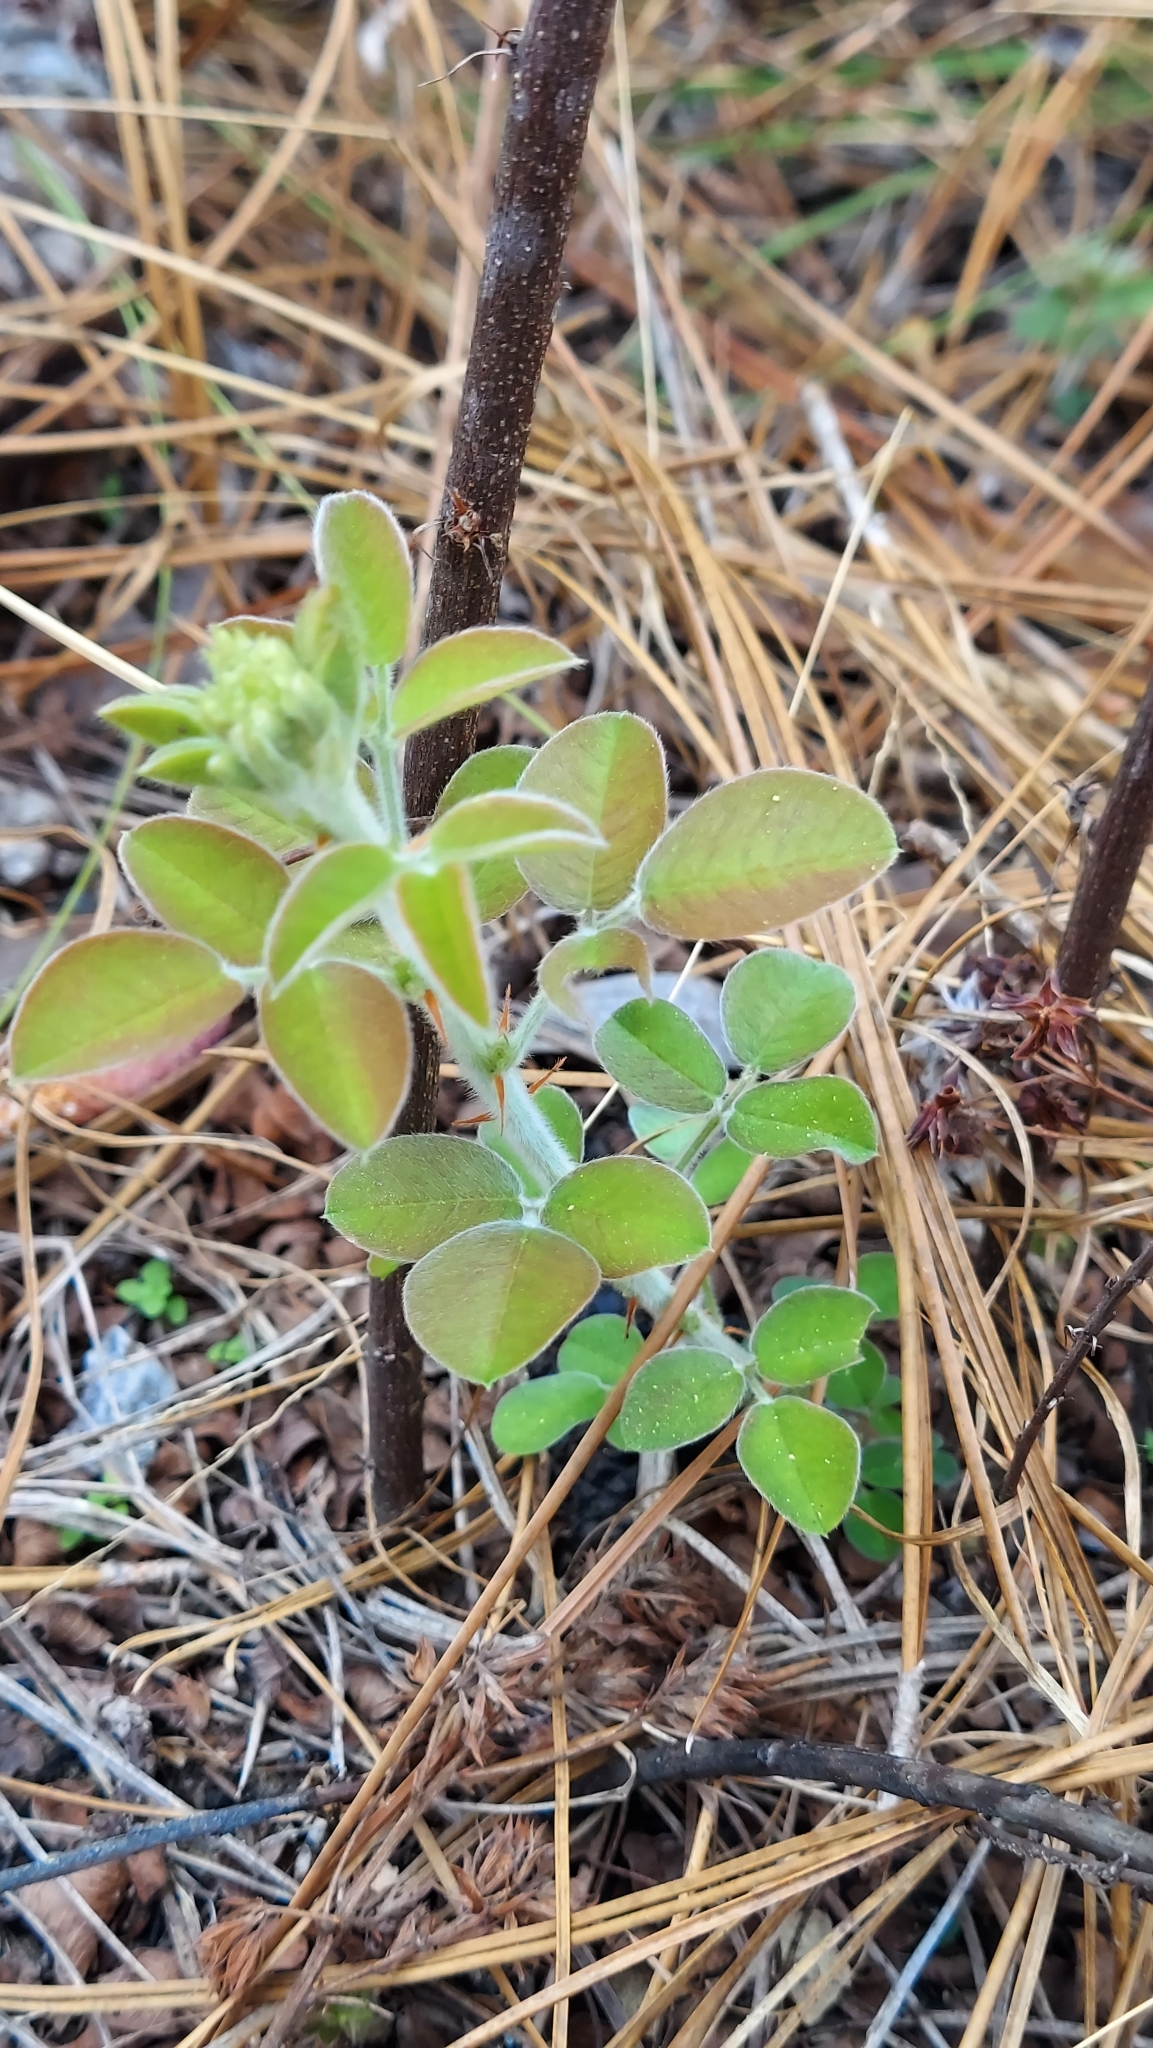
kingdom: Plantae
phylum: Tracheophyta
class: Magnoliopsida
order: Fabales
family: Fabaceae
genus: Lespedeza
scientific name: Lespedeza hirta
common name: Hairy lespedeza
